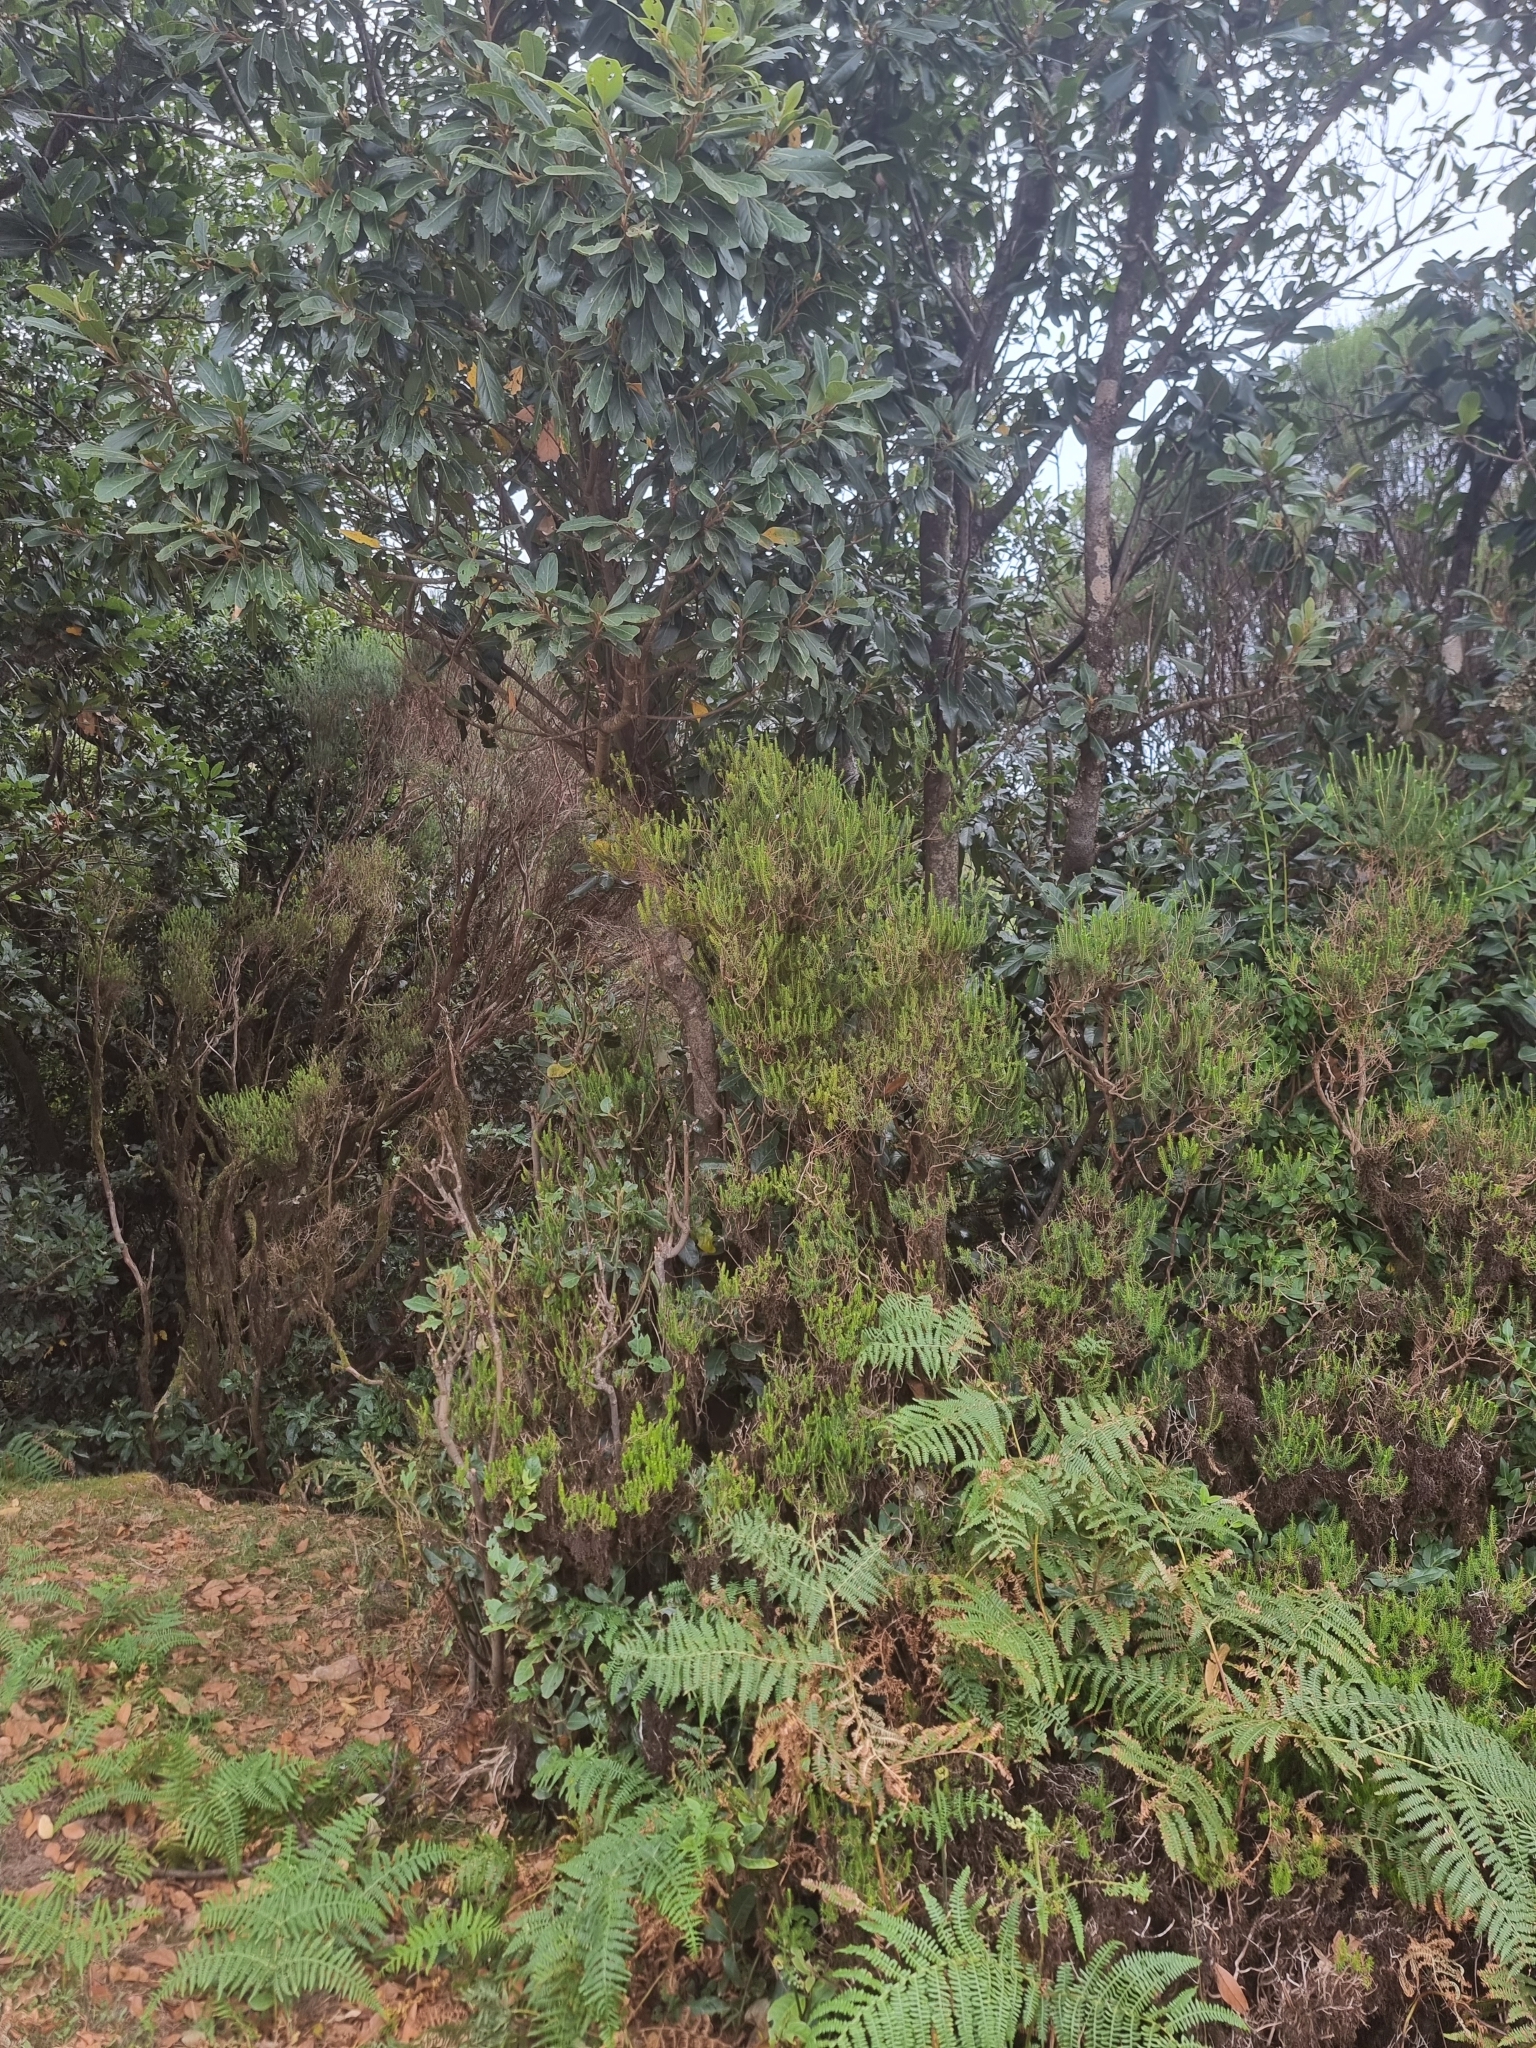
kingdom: Plantae
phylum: Tracheophyta
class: Magnoliopsida
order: Ericales
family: Ericaceae
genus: Erica
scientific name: Erica platycodon
